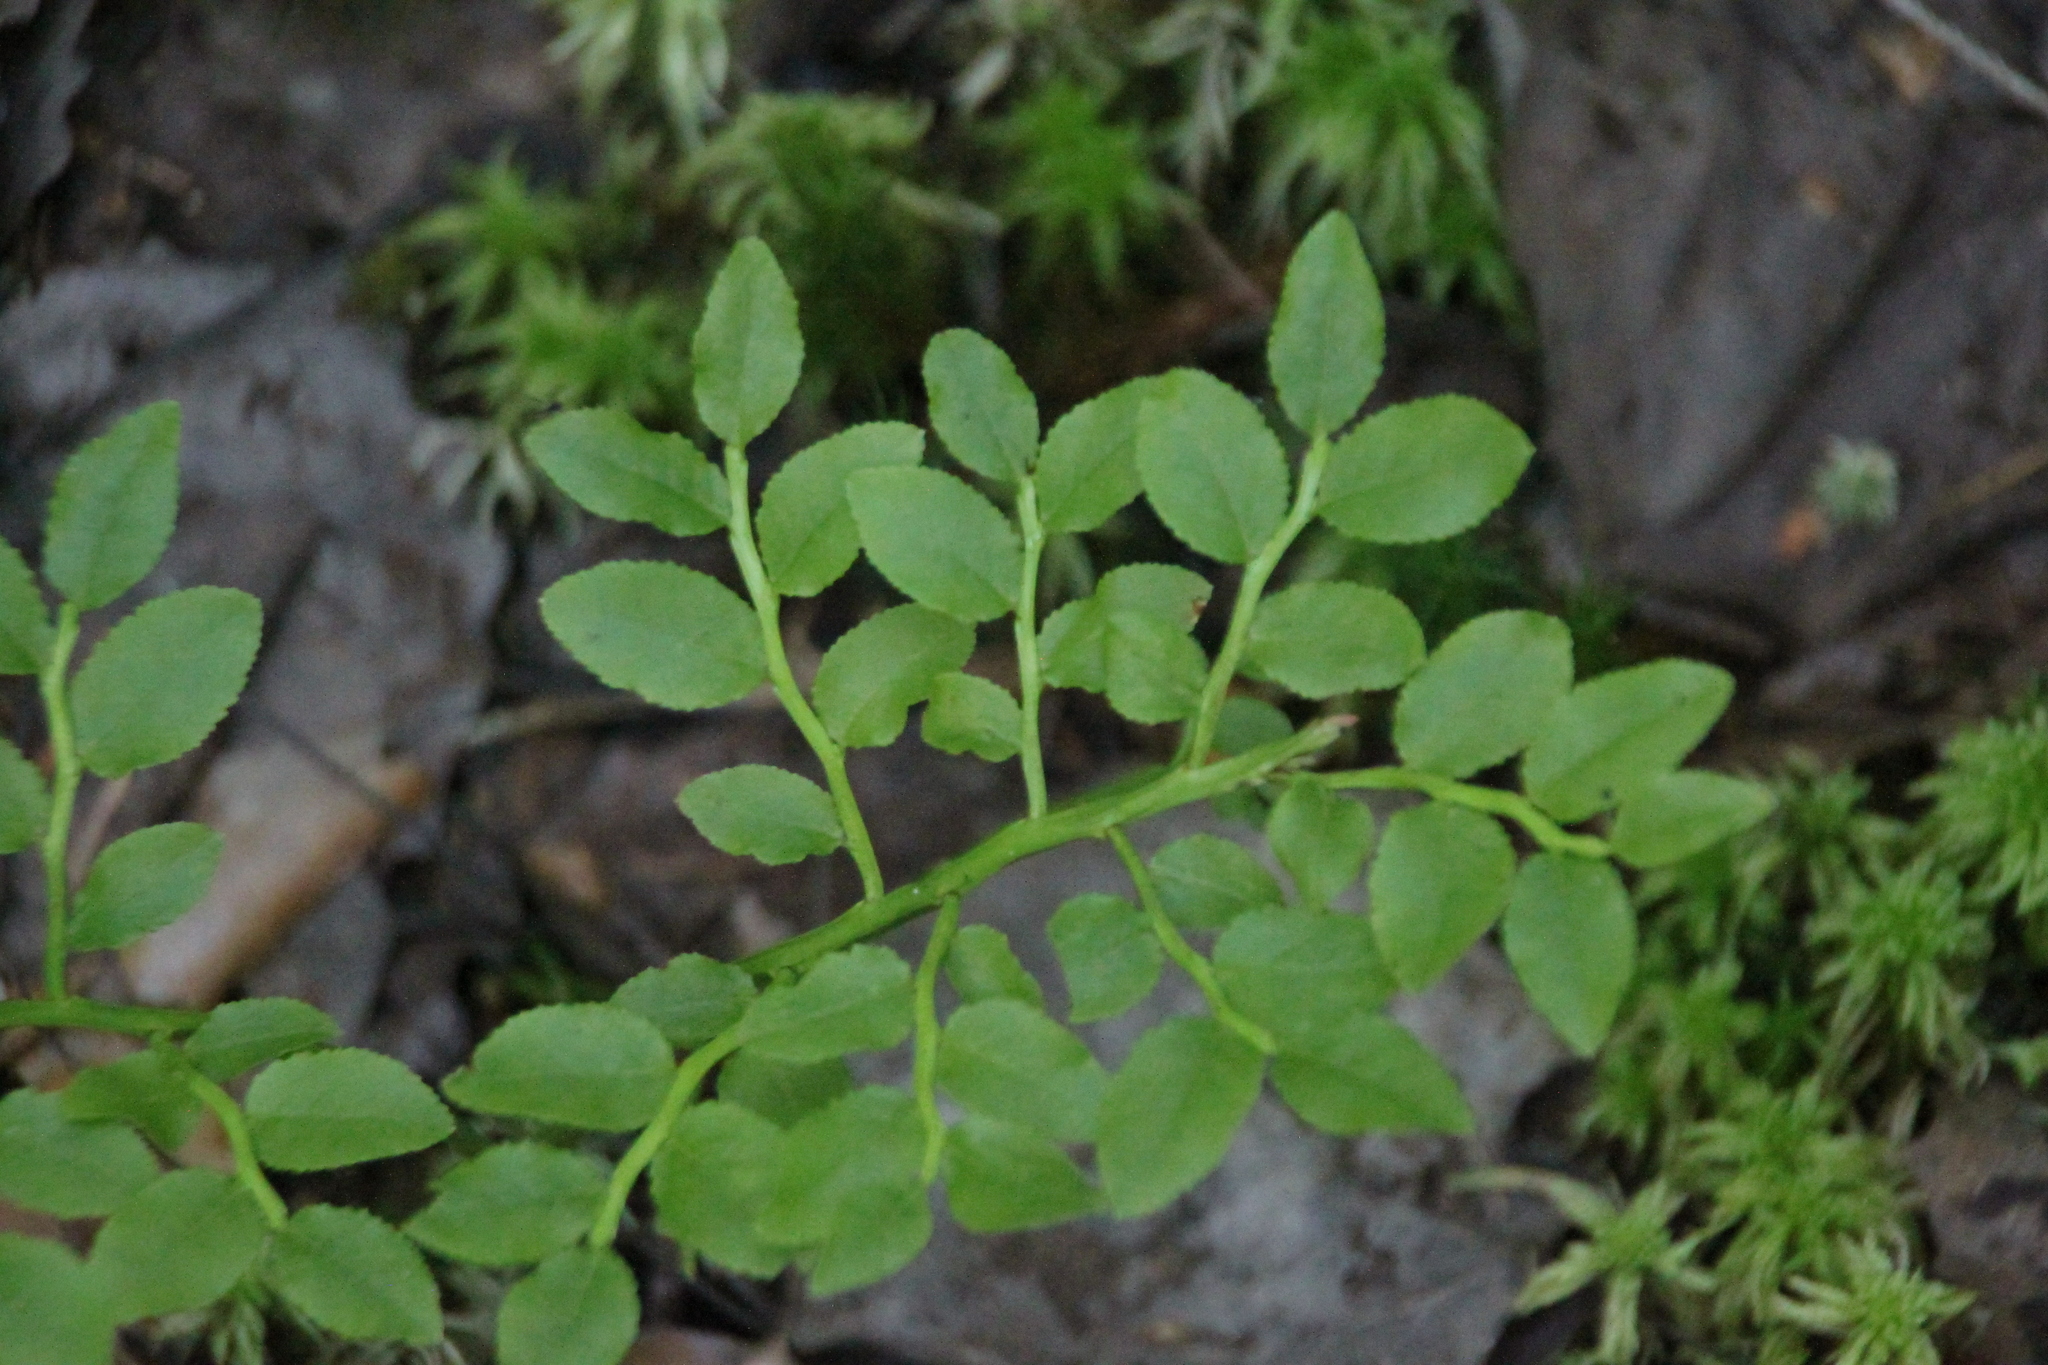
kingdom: Plantae
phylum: Tracheophyta
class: Magnoliopsida
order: Ericales
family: Ericaceae
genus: Vaccinium
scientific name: Vaccinium myrtillus
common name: Bilberry
